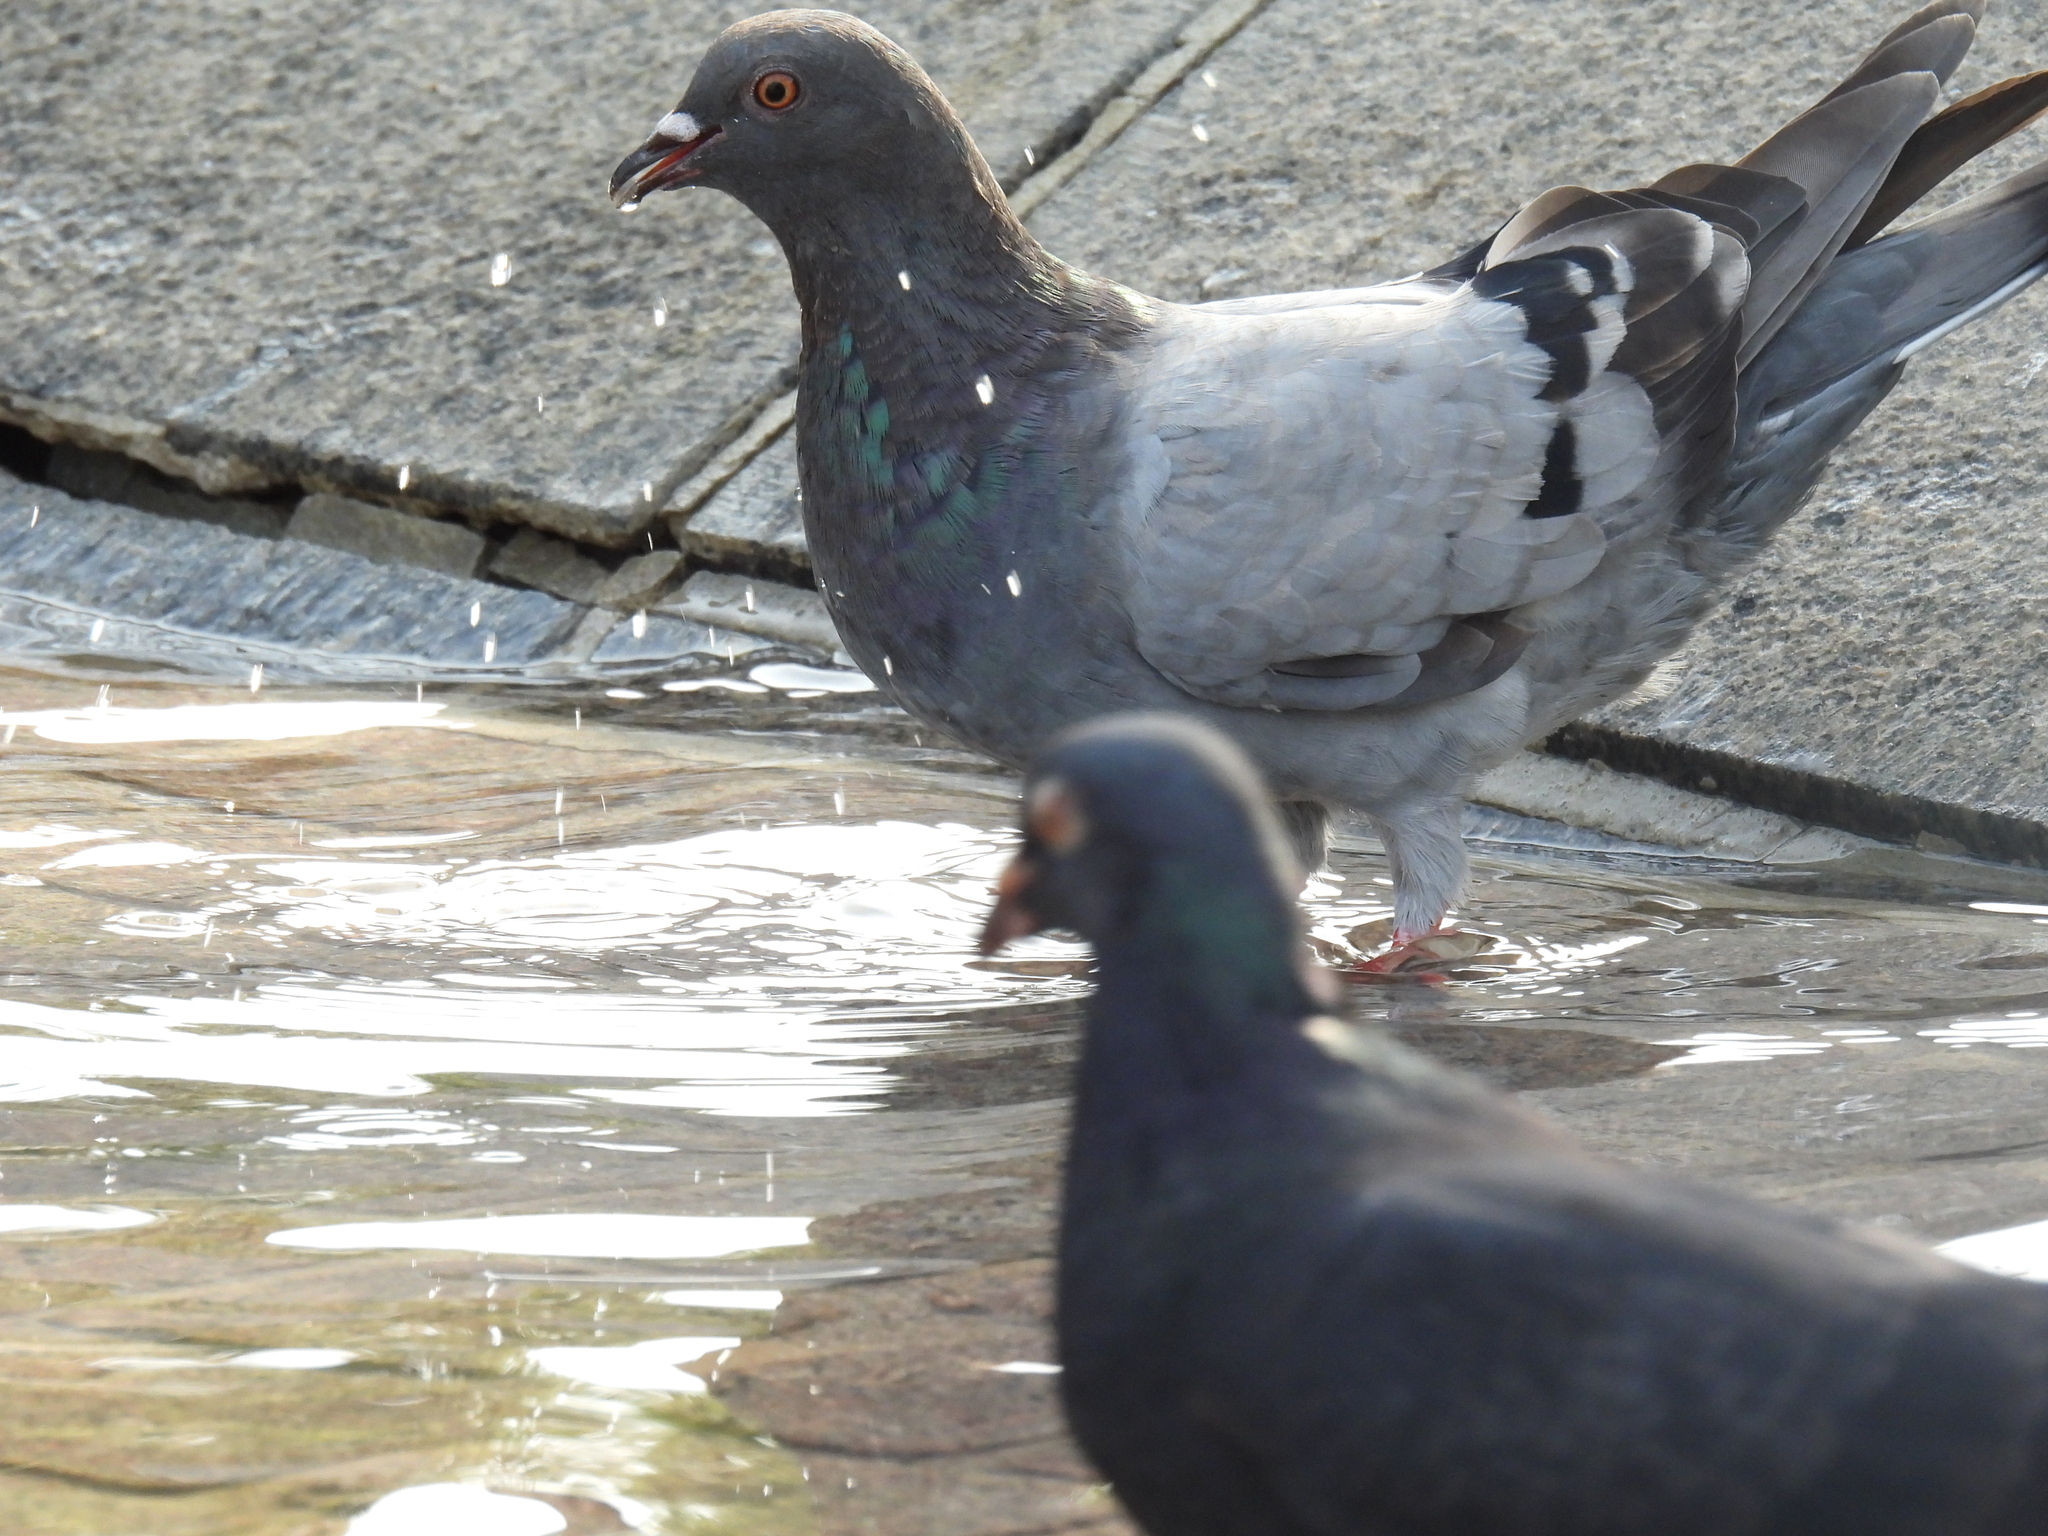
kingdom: Animalia
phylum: Chordata
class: Aves
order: Columbiformes
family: Columbidae
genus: Columba
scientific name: Columba livia
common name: Rock pigeon
